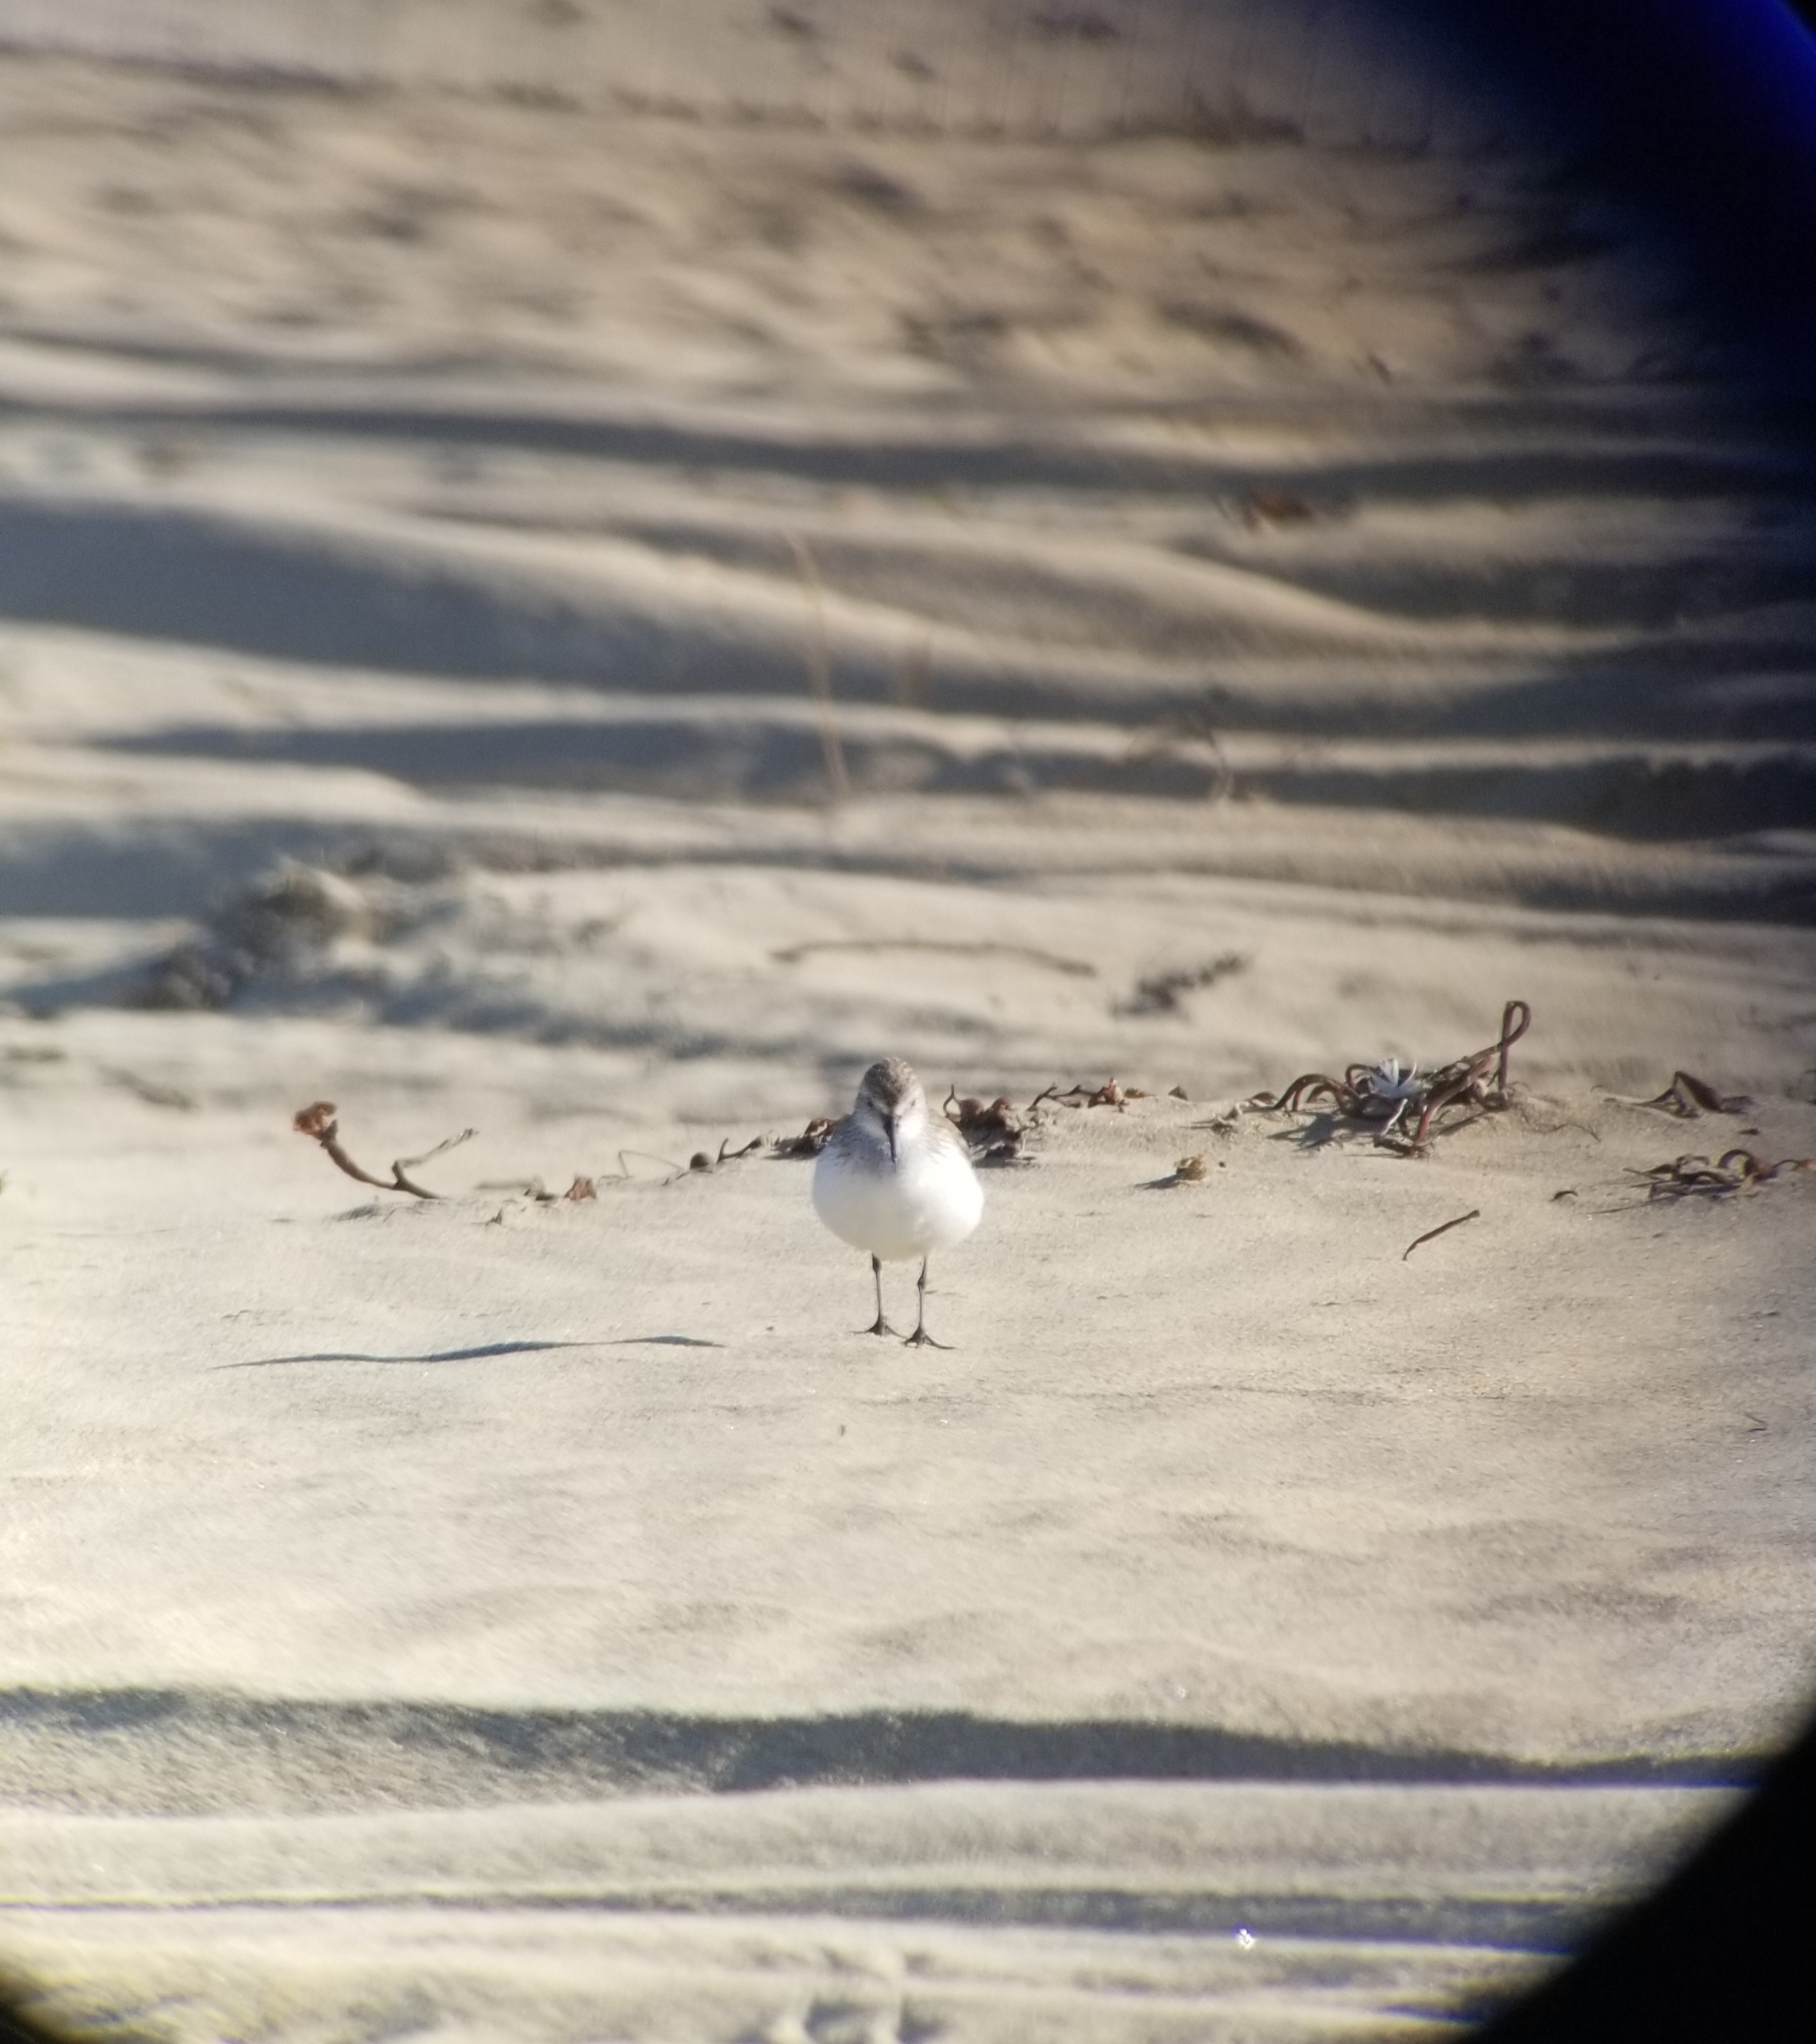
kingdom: Animalia
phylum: Chordata
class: Aves
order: Charadriiformes
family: Scolopacidae
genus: Calidris
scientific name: Calidris mauri
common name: Western sandpiper
